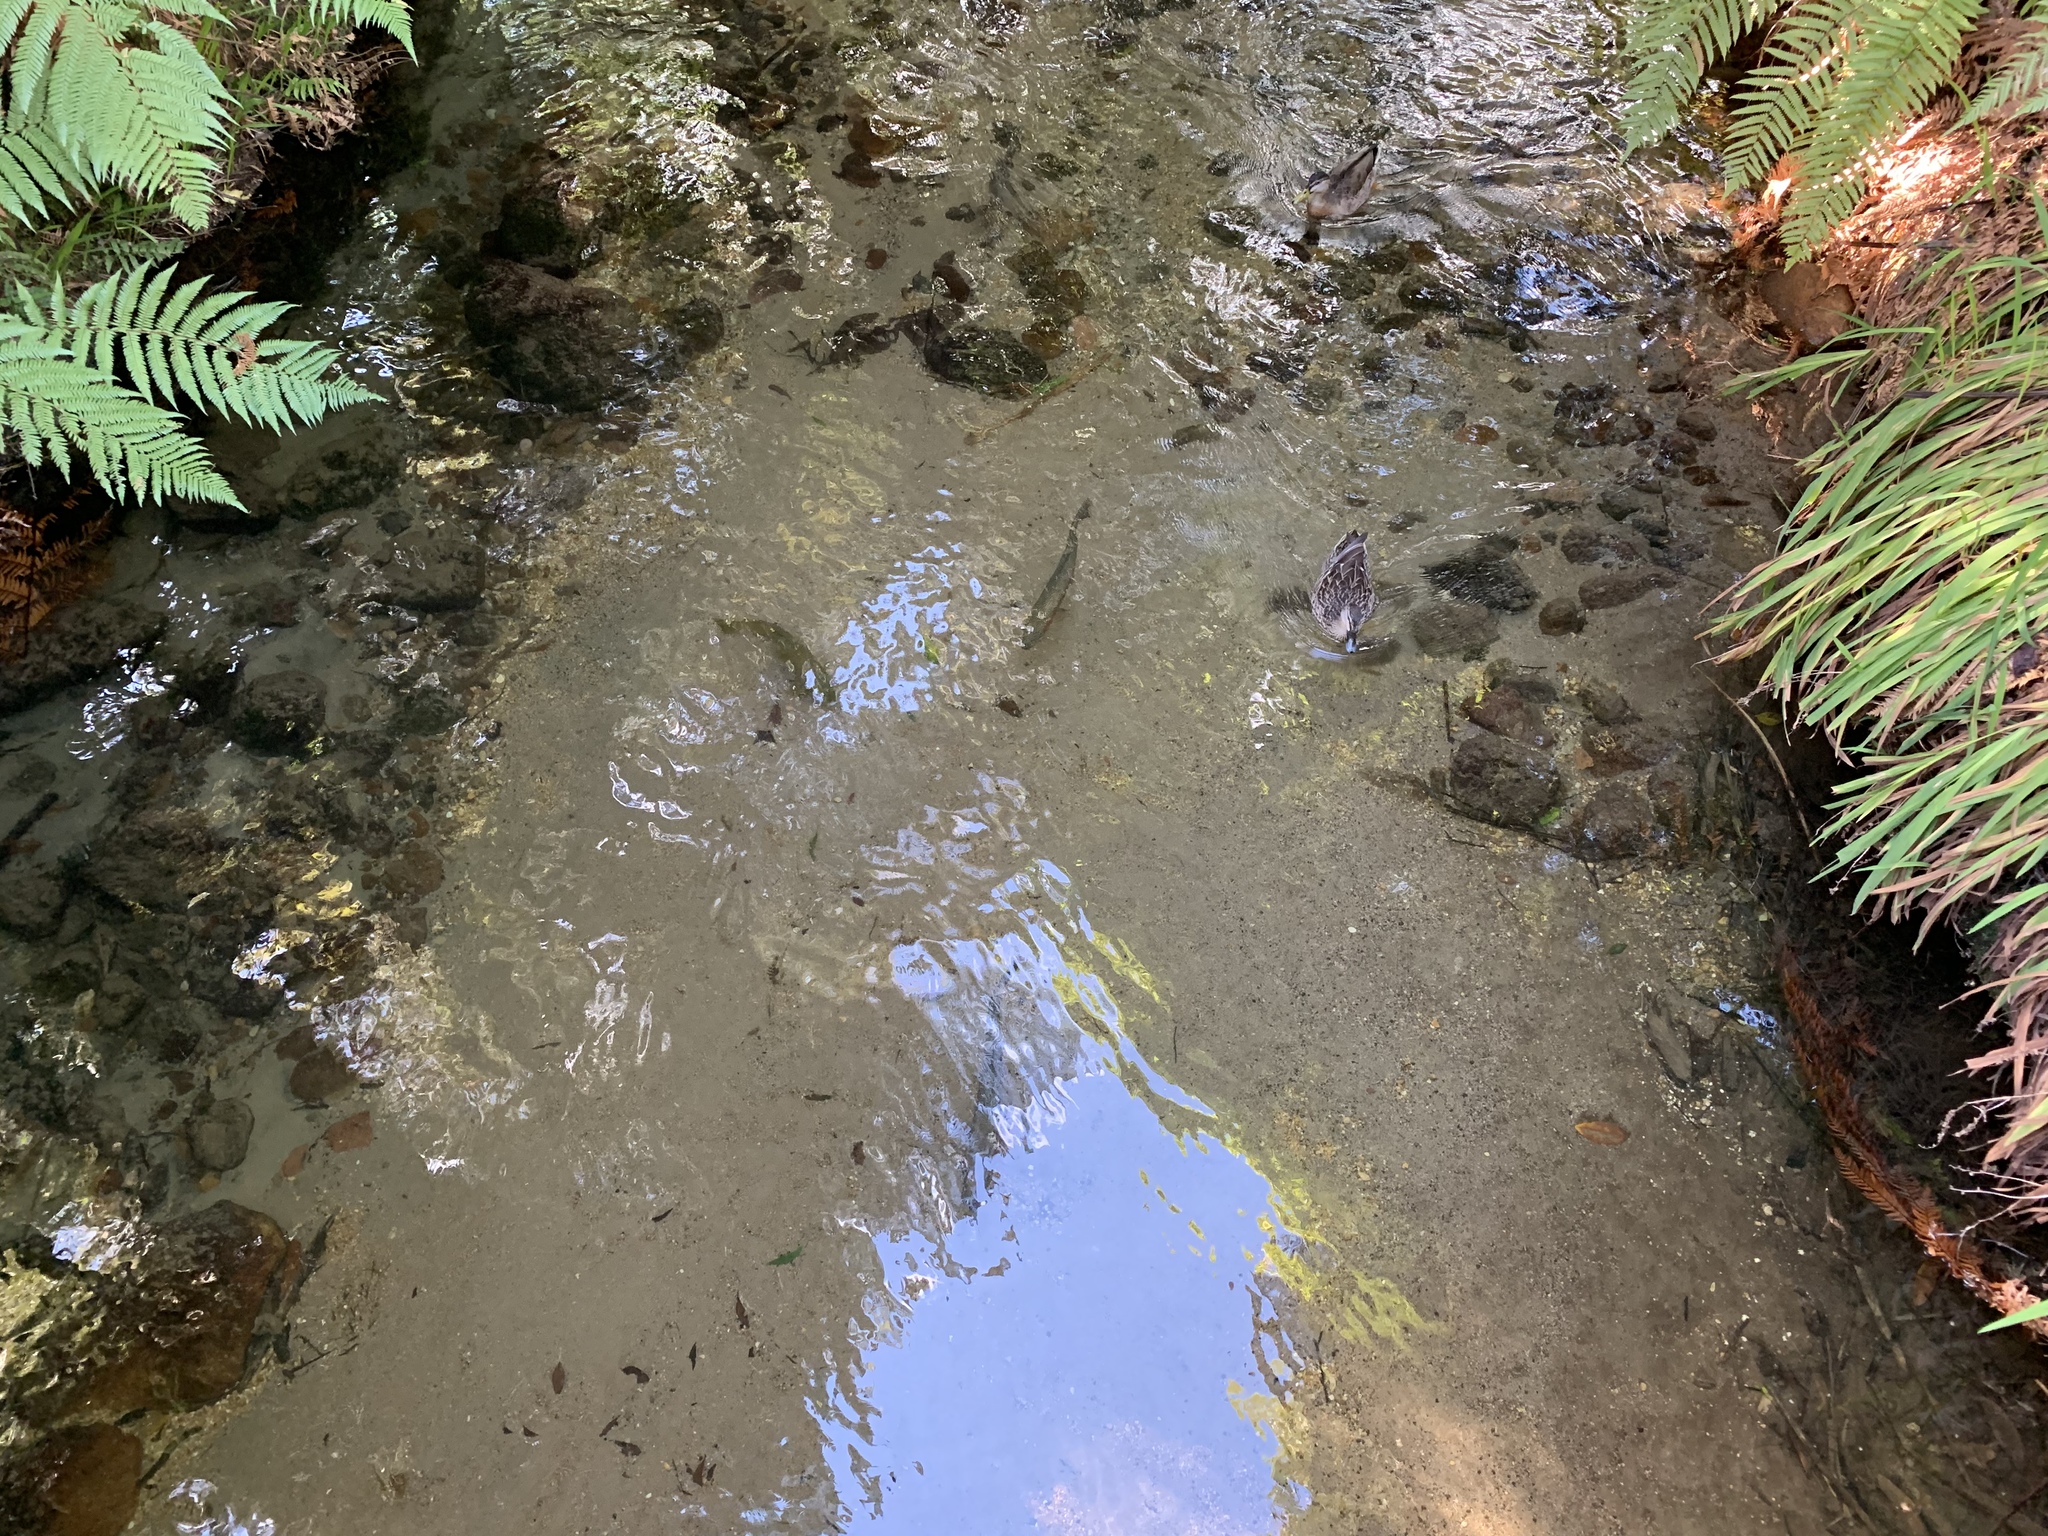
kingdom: Animalia
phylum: Chordata
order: Salmoniformes
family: Salmonidae
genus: Oncorhynchus
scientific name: Oncorhynchus mykiss
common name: Rainbow trout
